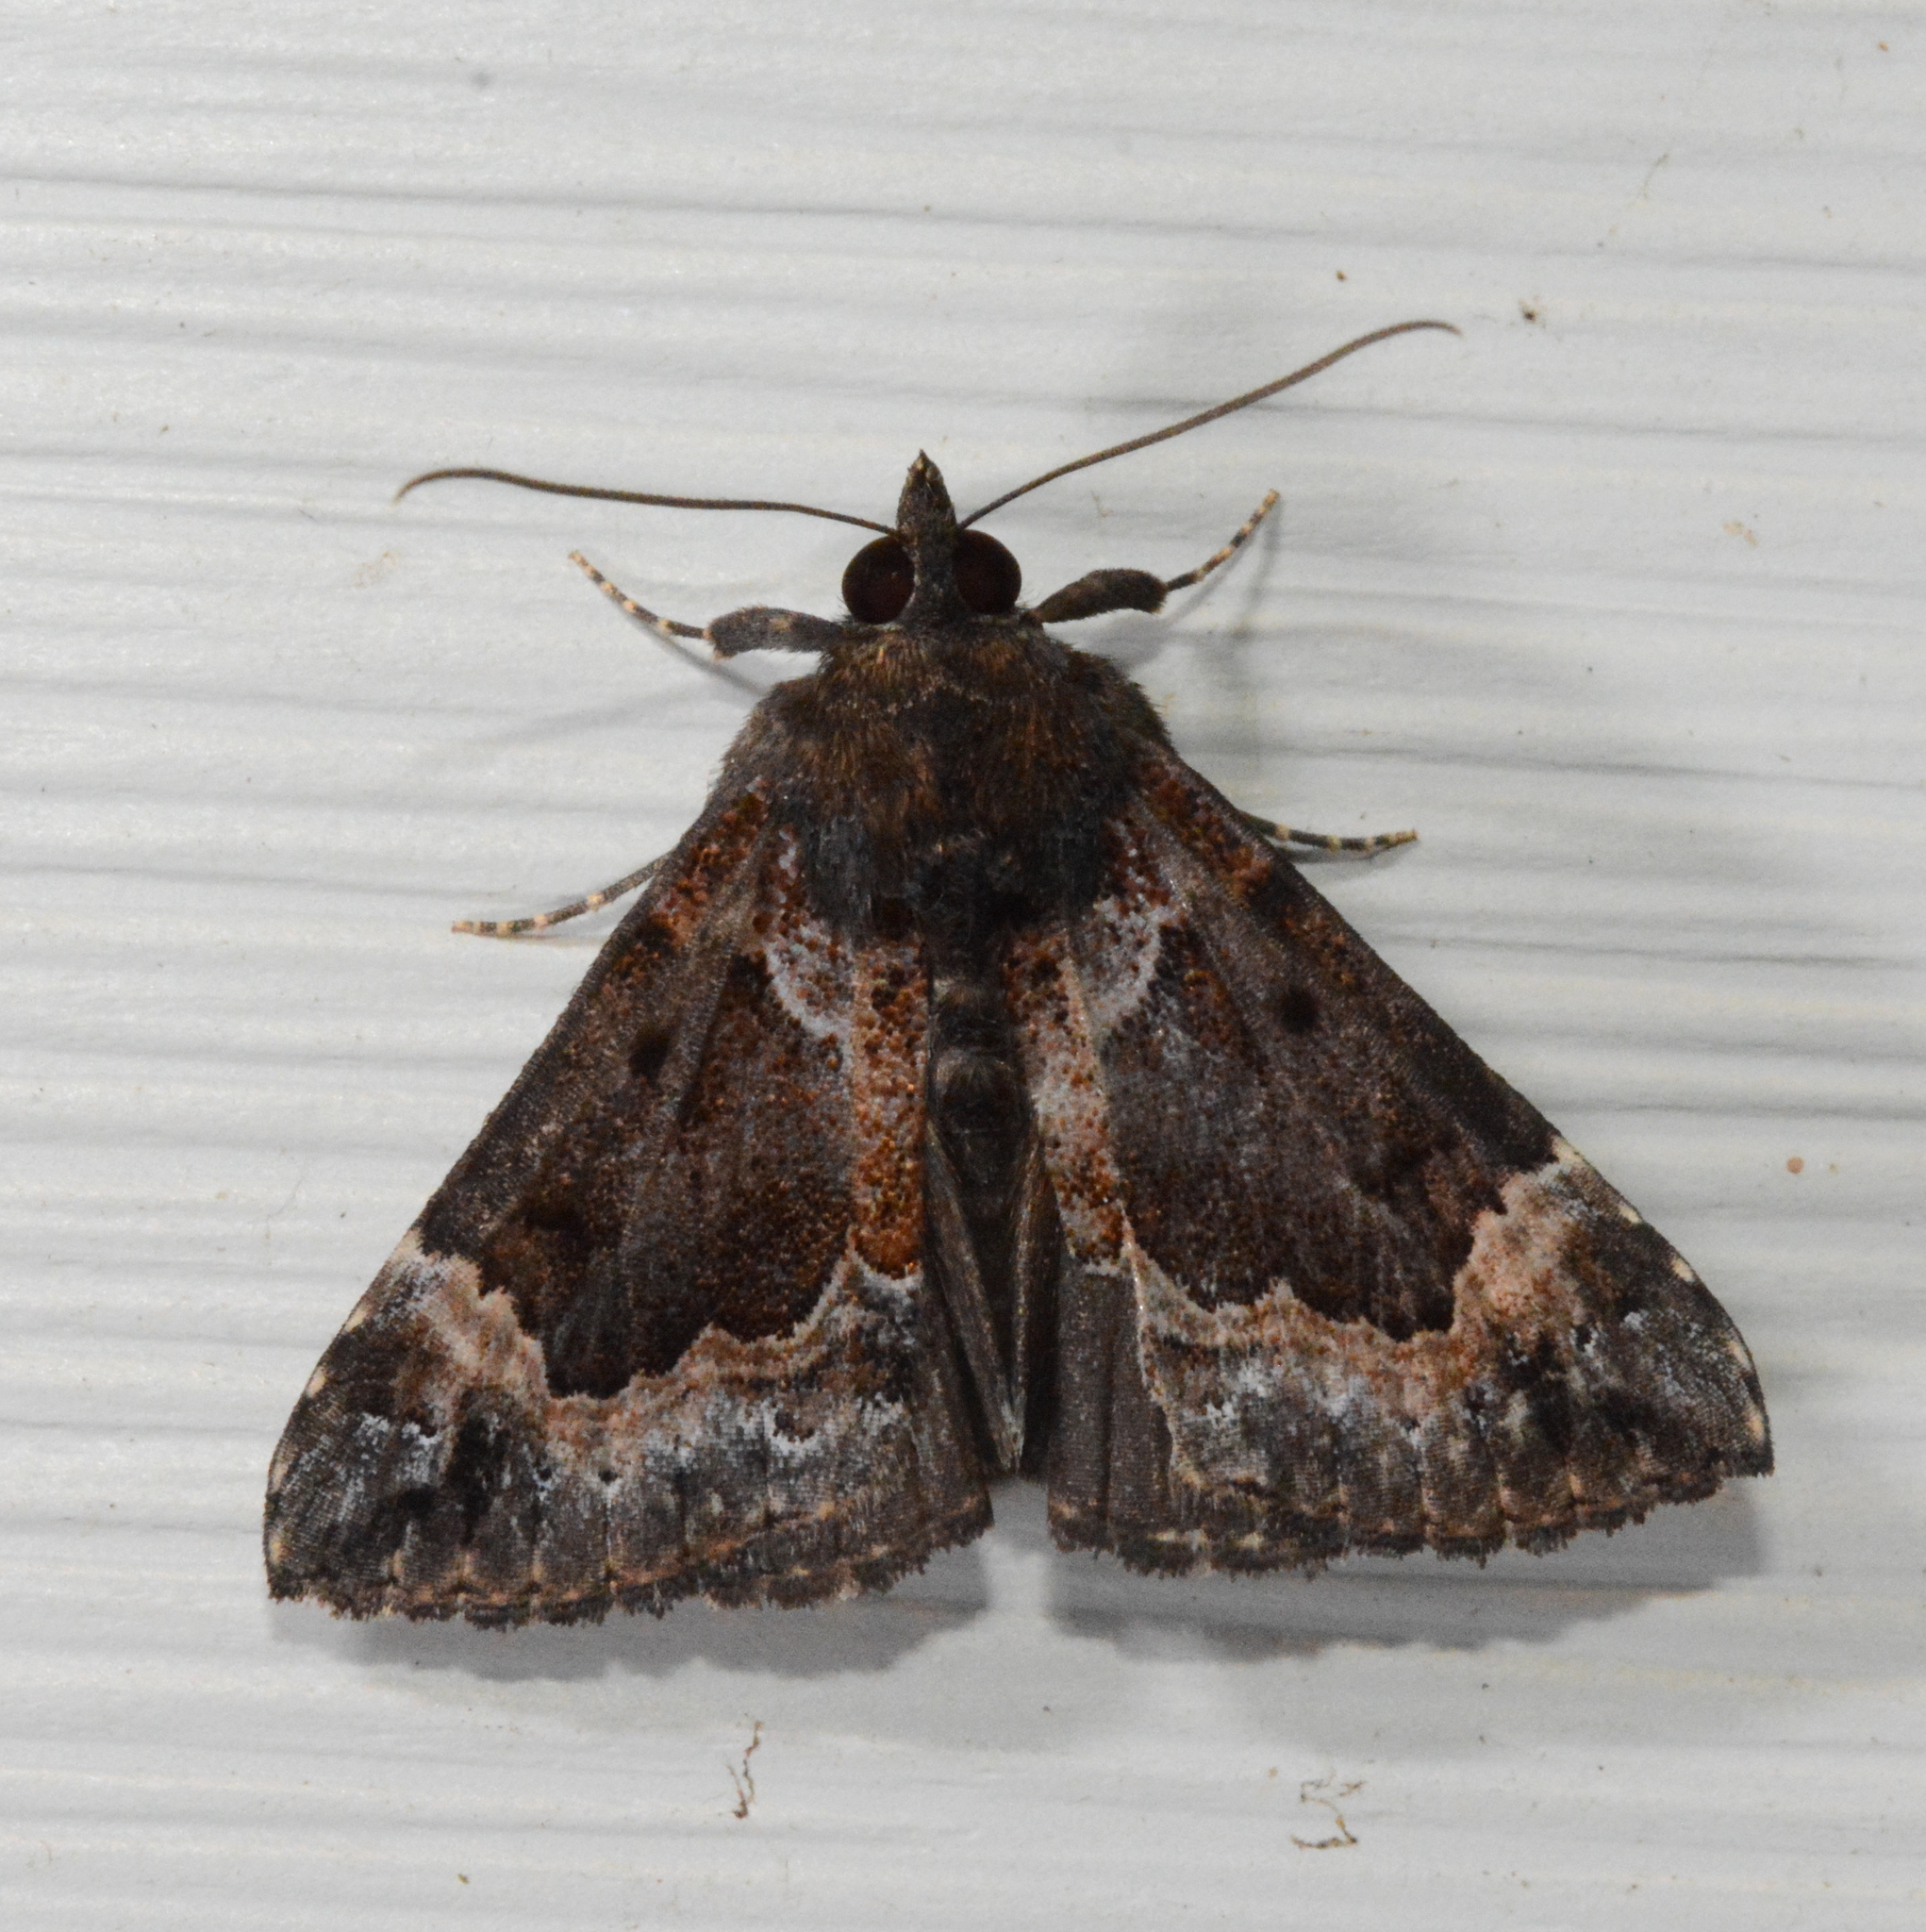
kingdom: Animalia
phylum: Arthropoda
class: Insecta
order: Lepidoptera
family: Erebidae
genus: Hypena
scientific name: Hypena palparia
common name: Mottled bomolocha moth
